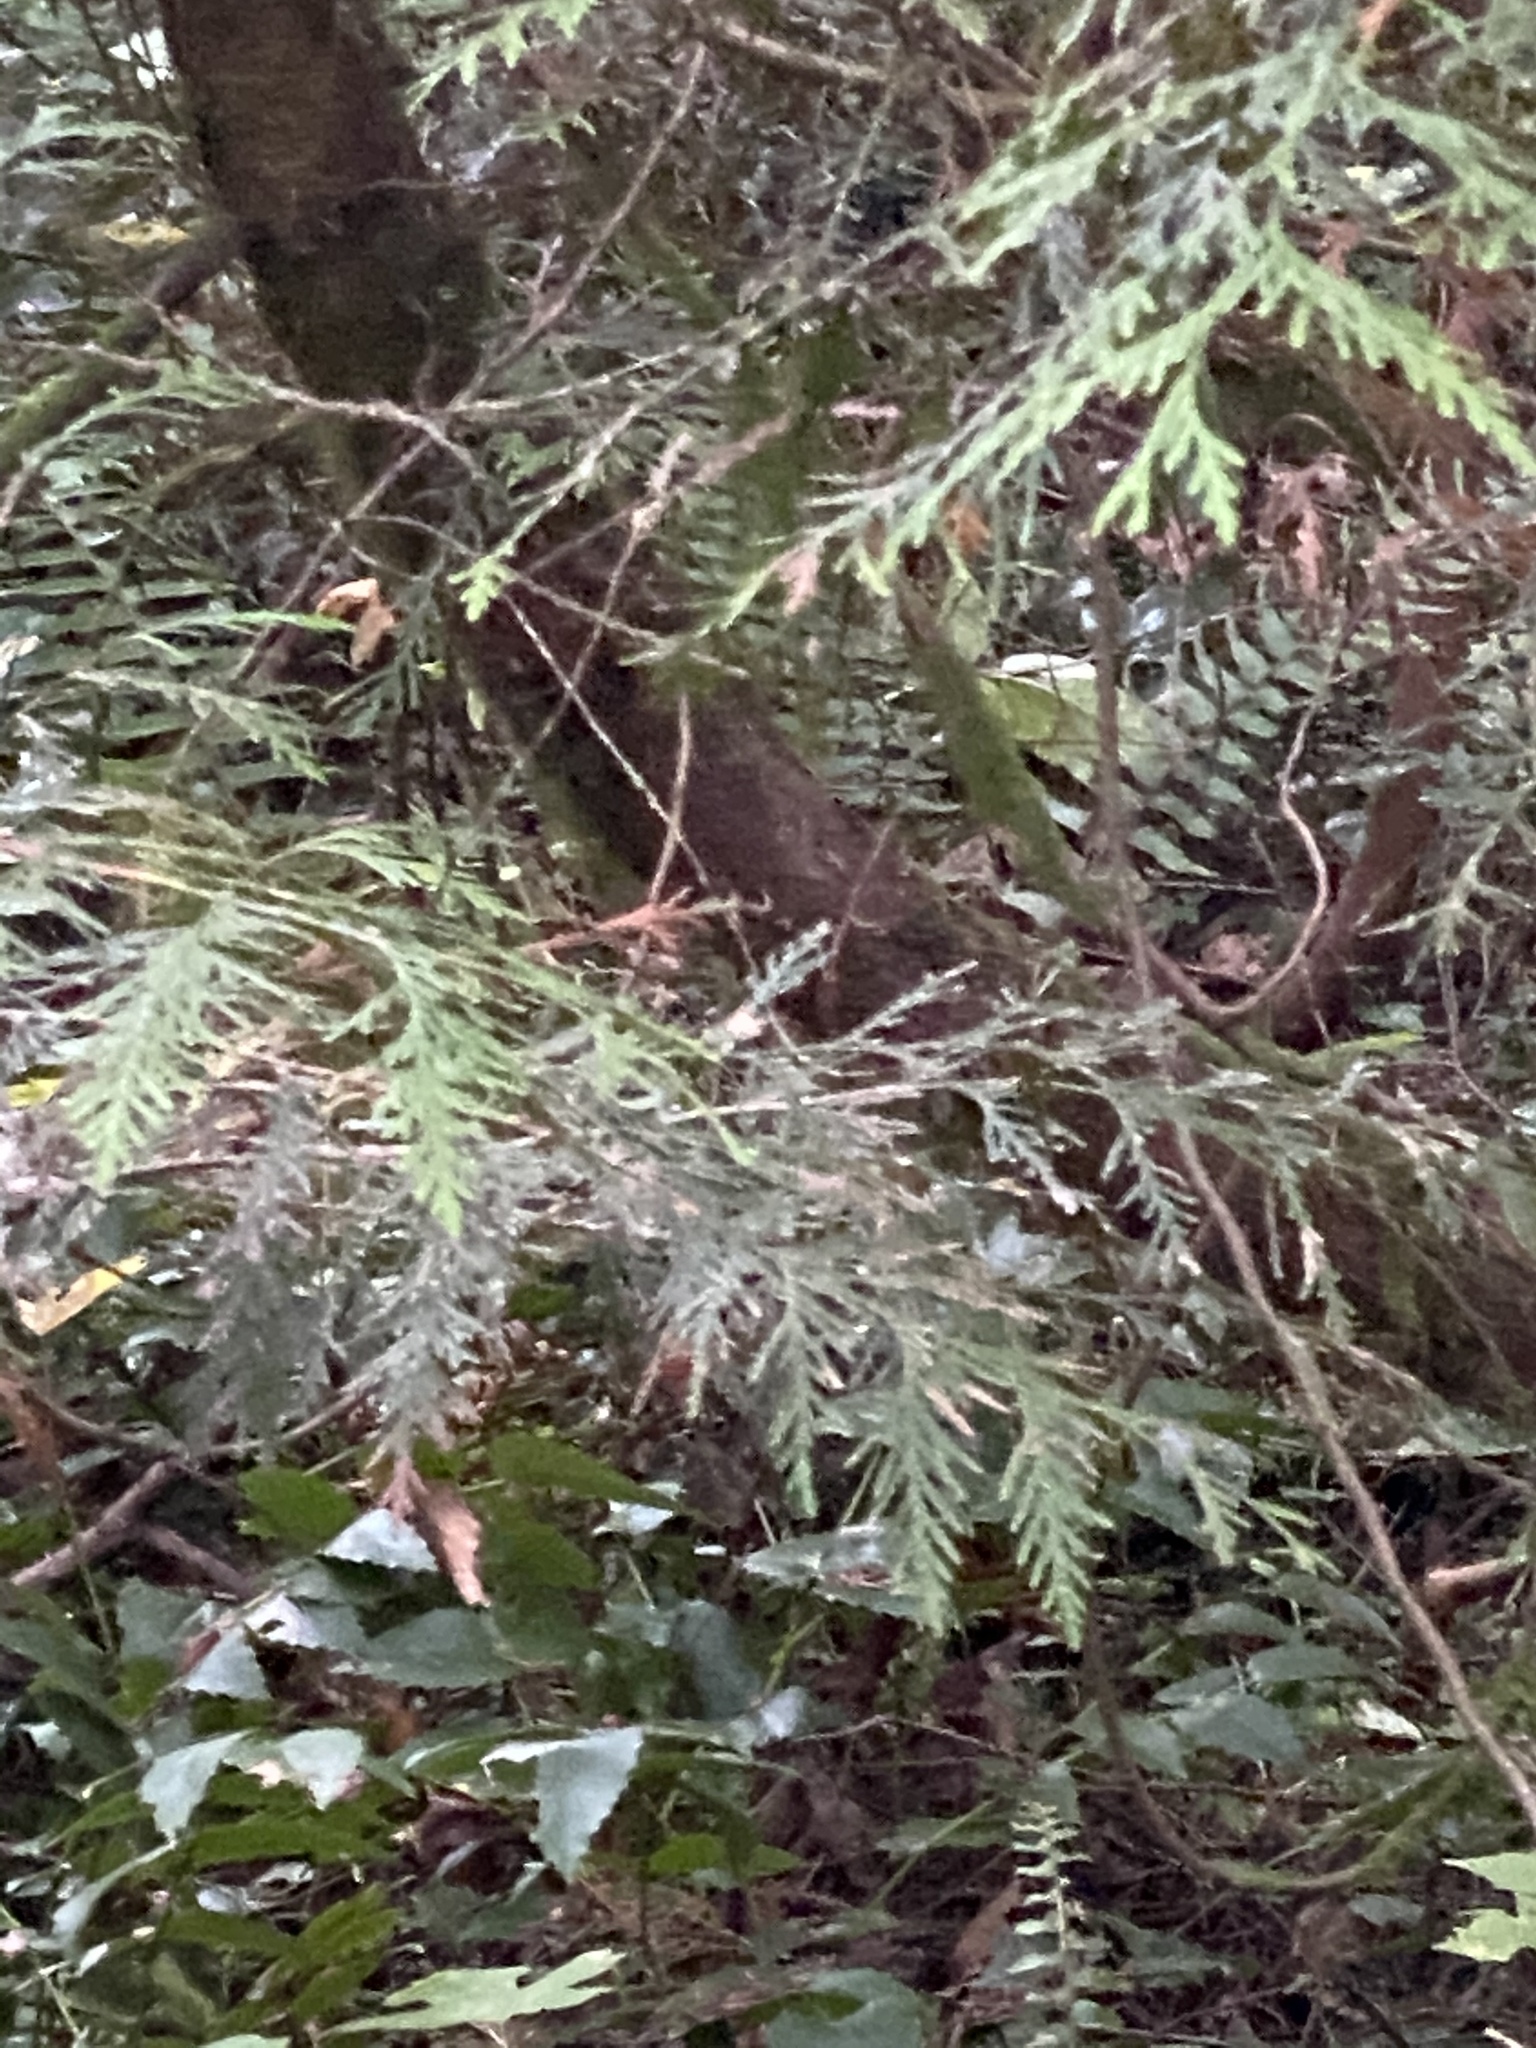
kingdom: Plantae
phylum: Tracheophyta
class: Pinopsida
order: Pinales
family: Cupressaceae
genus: Thuja
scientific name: Thuja plicata
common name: Western red-cedar
